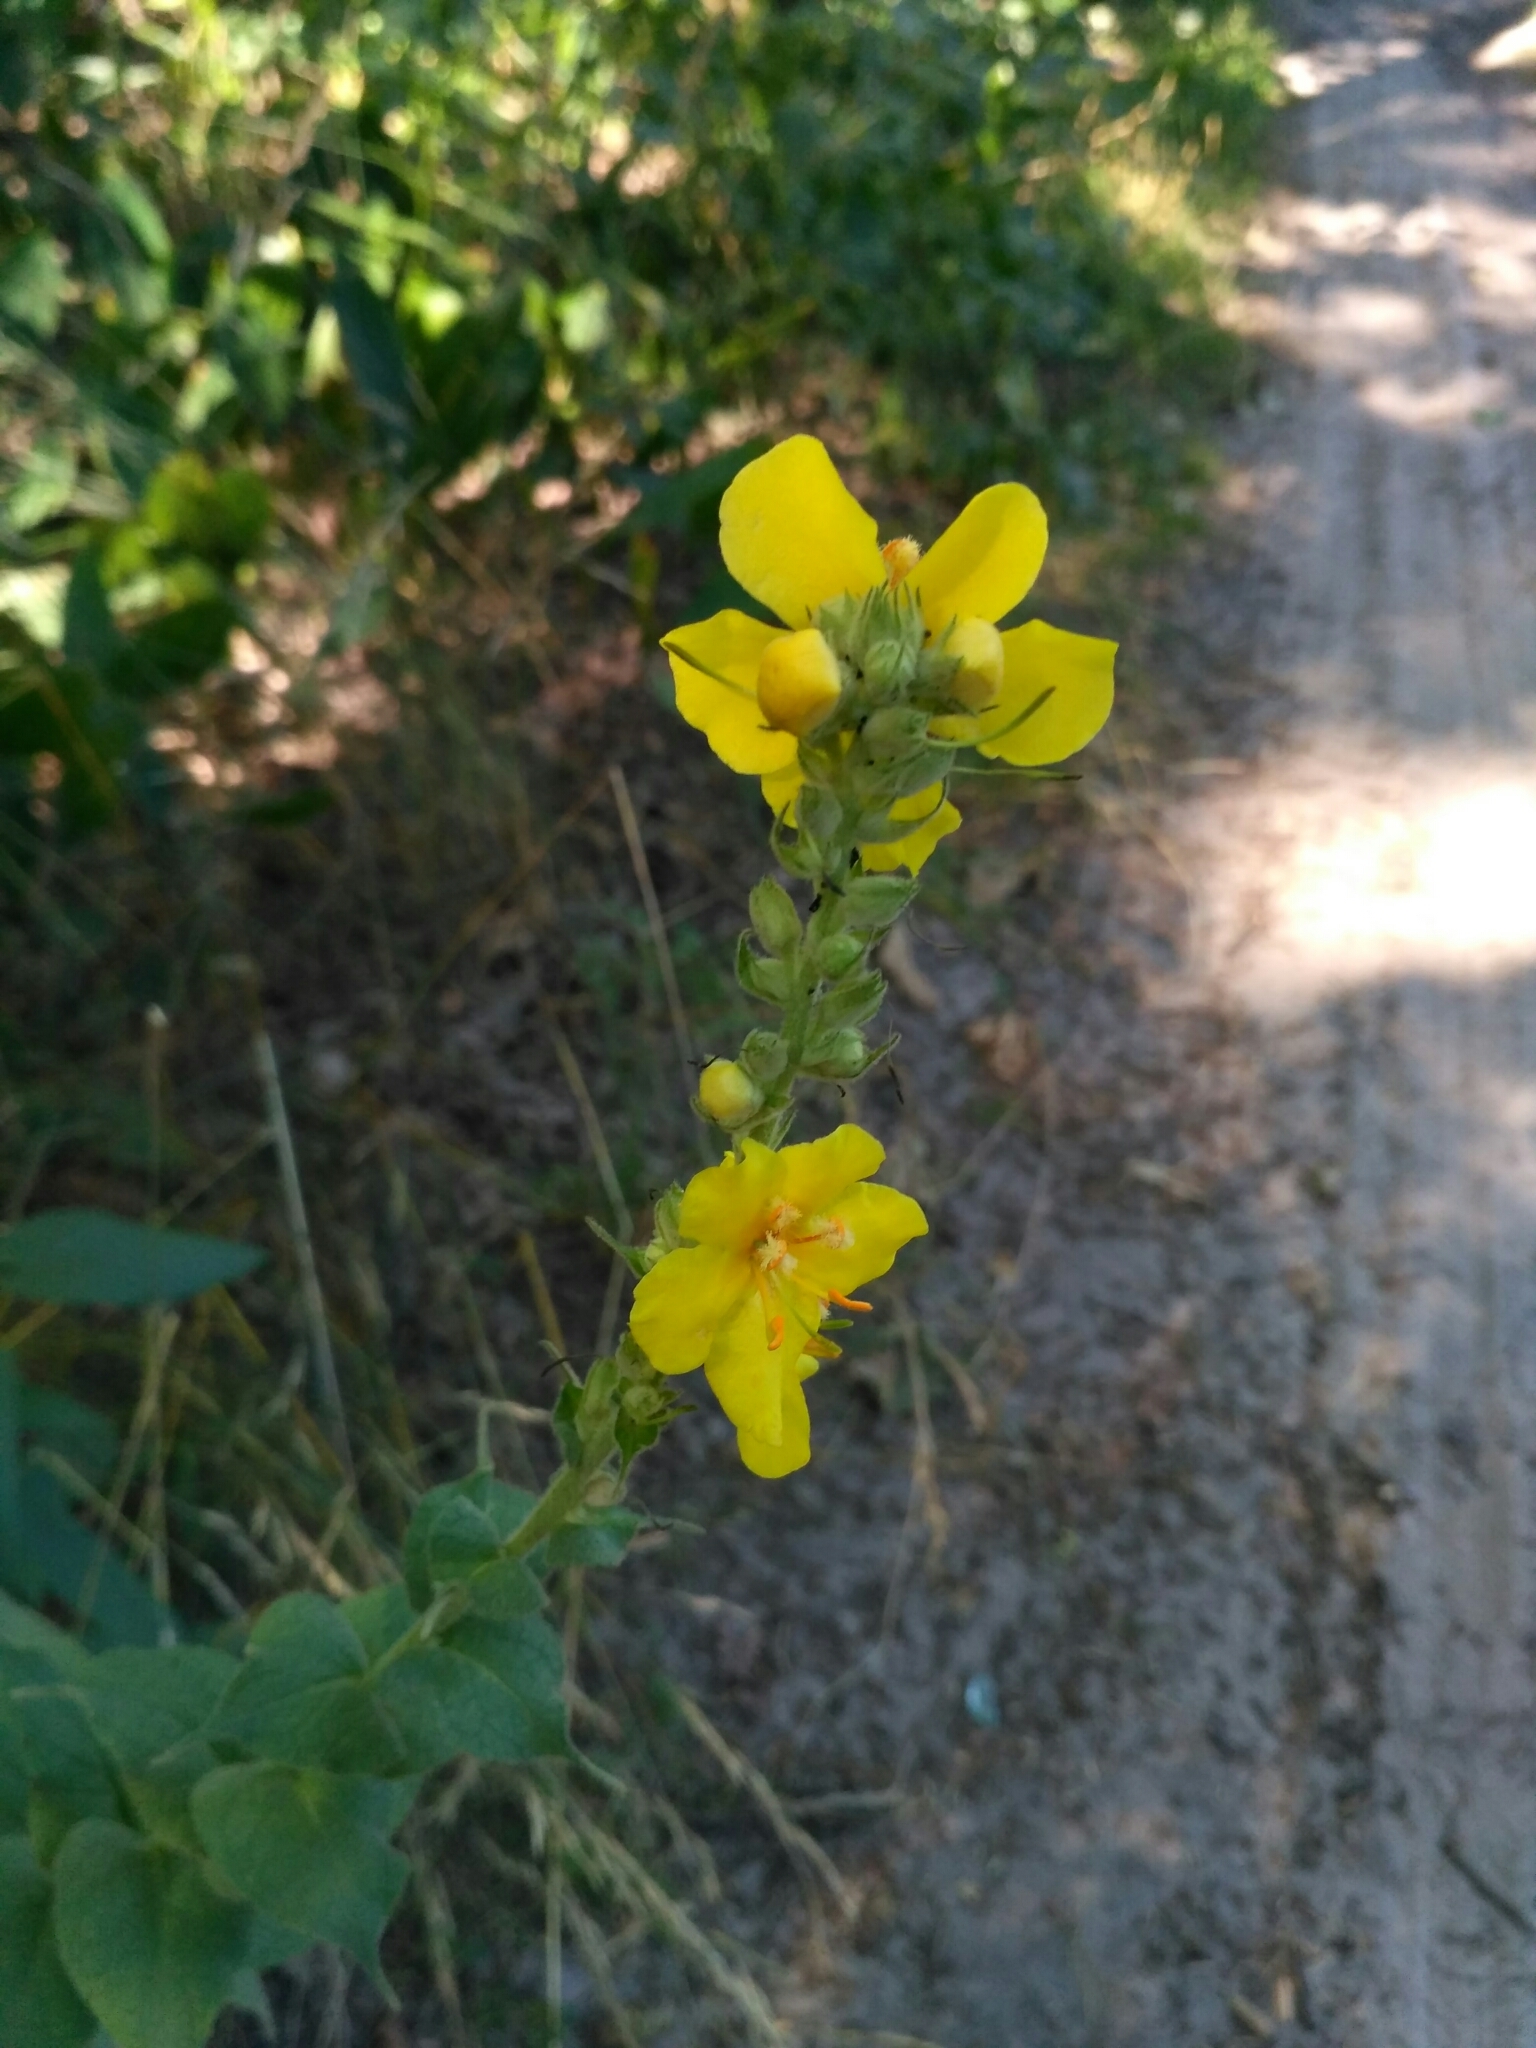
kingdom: Plantae
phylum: Tracheophyta
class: Magnoliopsida
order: Lamiales
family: Scrophulariaceae
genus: Verbascum
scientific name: Verbascum phlomoides
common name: Orange mullein
